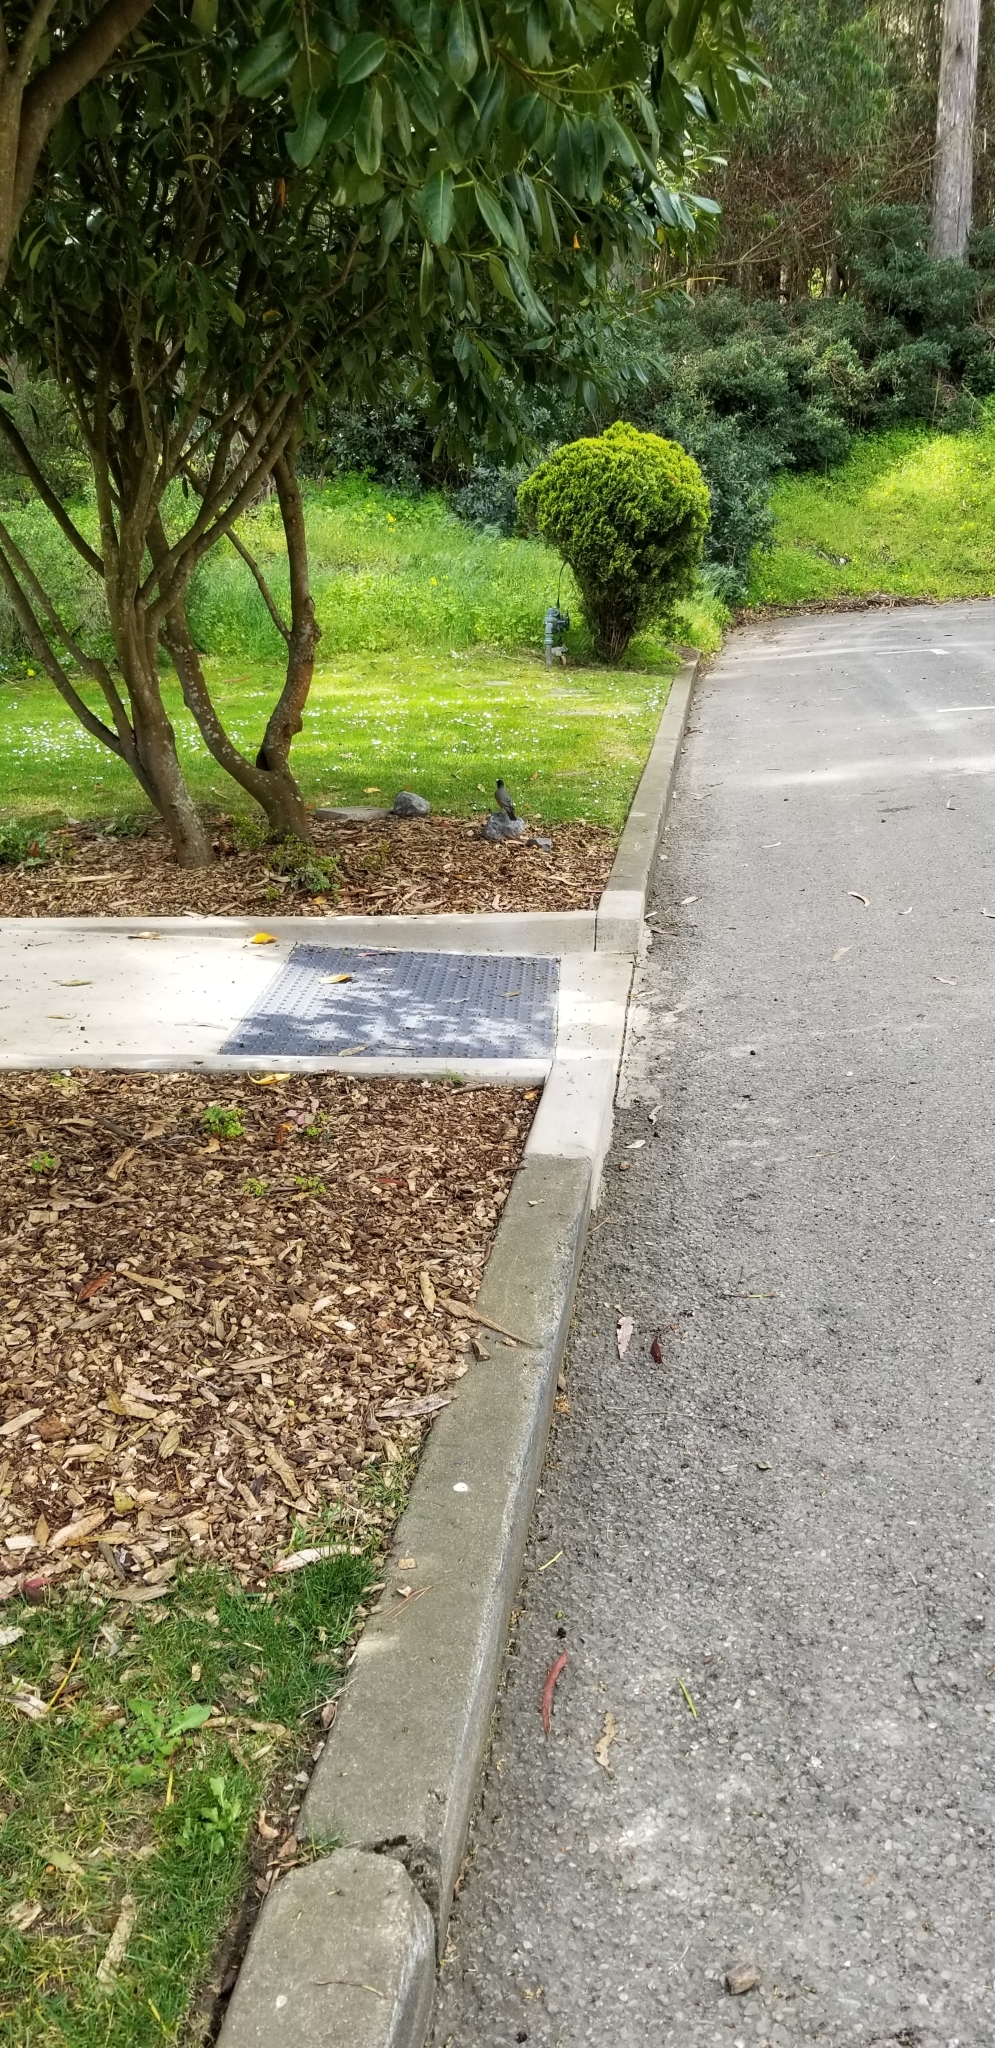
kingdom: Animalia
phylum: Chordata
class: Aves
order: Passeriformes
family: Turdidae
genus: Turdus
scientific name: Turdus migratorius
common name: American robin
